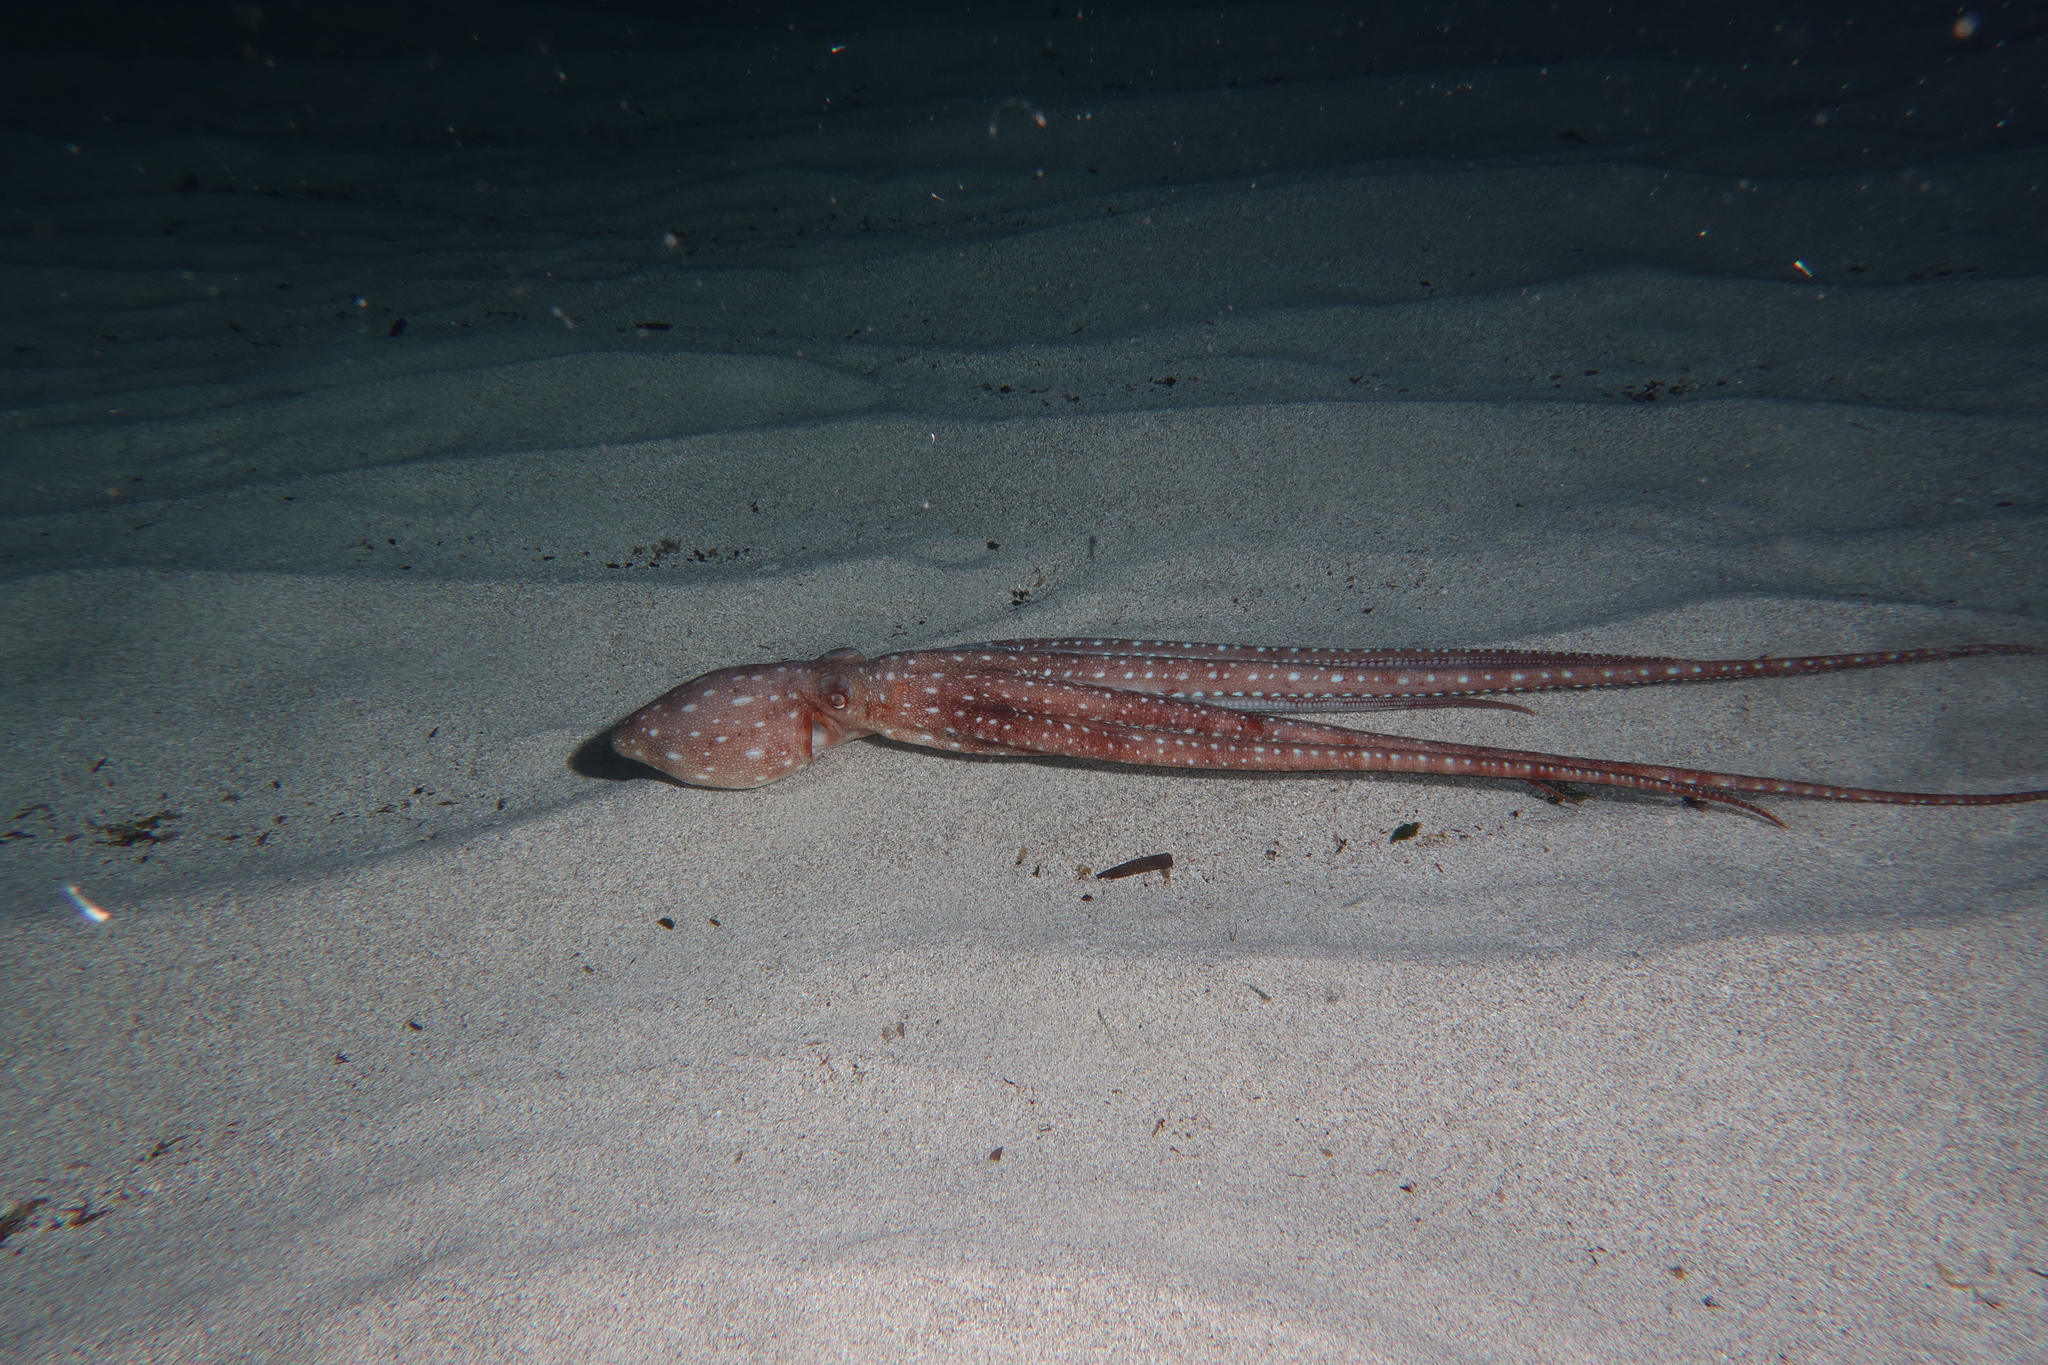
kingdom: Animalia
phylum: Mollusca
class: Cephalopoda
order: Octopoda
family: Octopodidae
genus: Callistoctopus
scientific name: Callistoctopus macropus
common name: Atlantic white-spotted octopus
